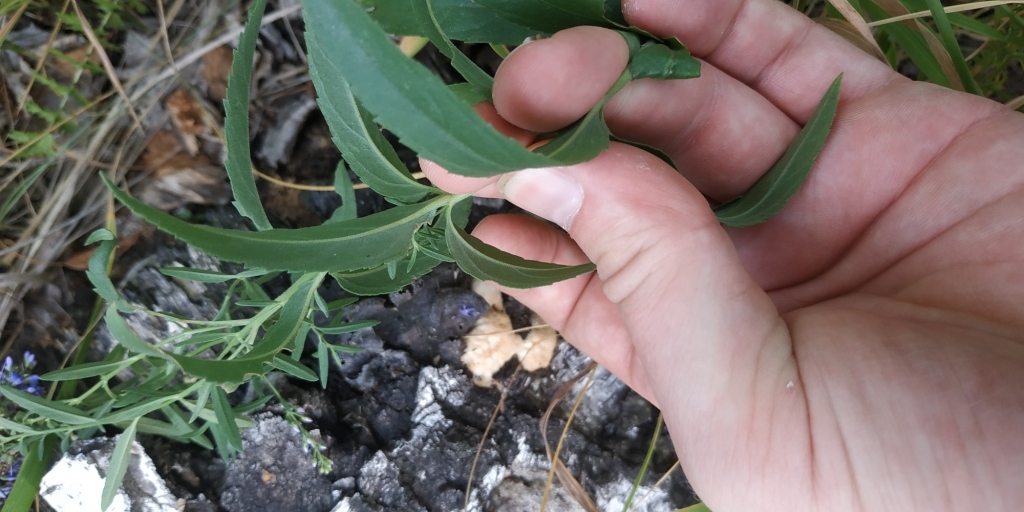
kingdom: Plantae
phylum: Tracheophyta
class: Magnoliopsida
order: Lamiales
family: Plantaginaceae
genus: Veronica
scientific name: Veronica spicata
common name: Spiked speedwell
